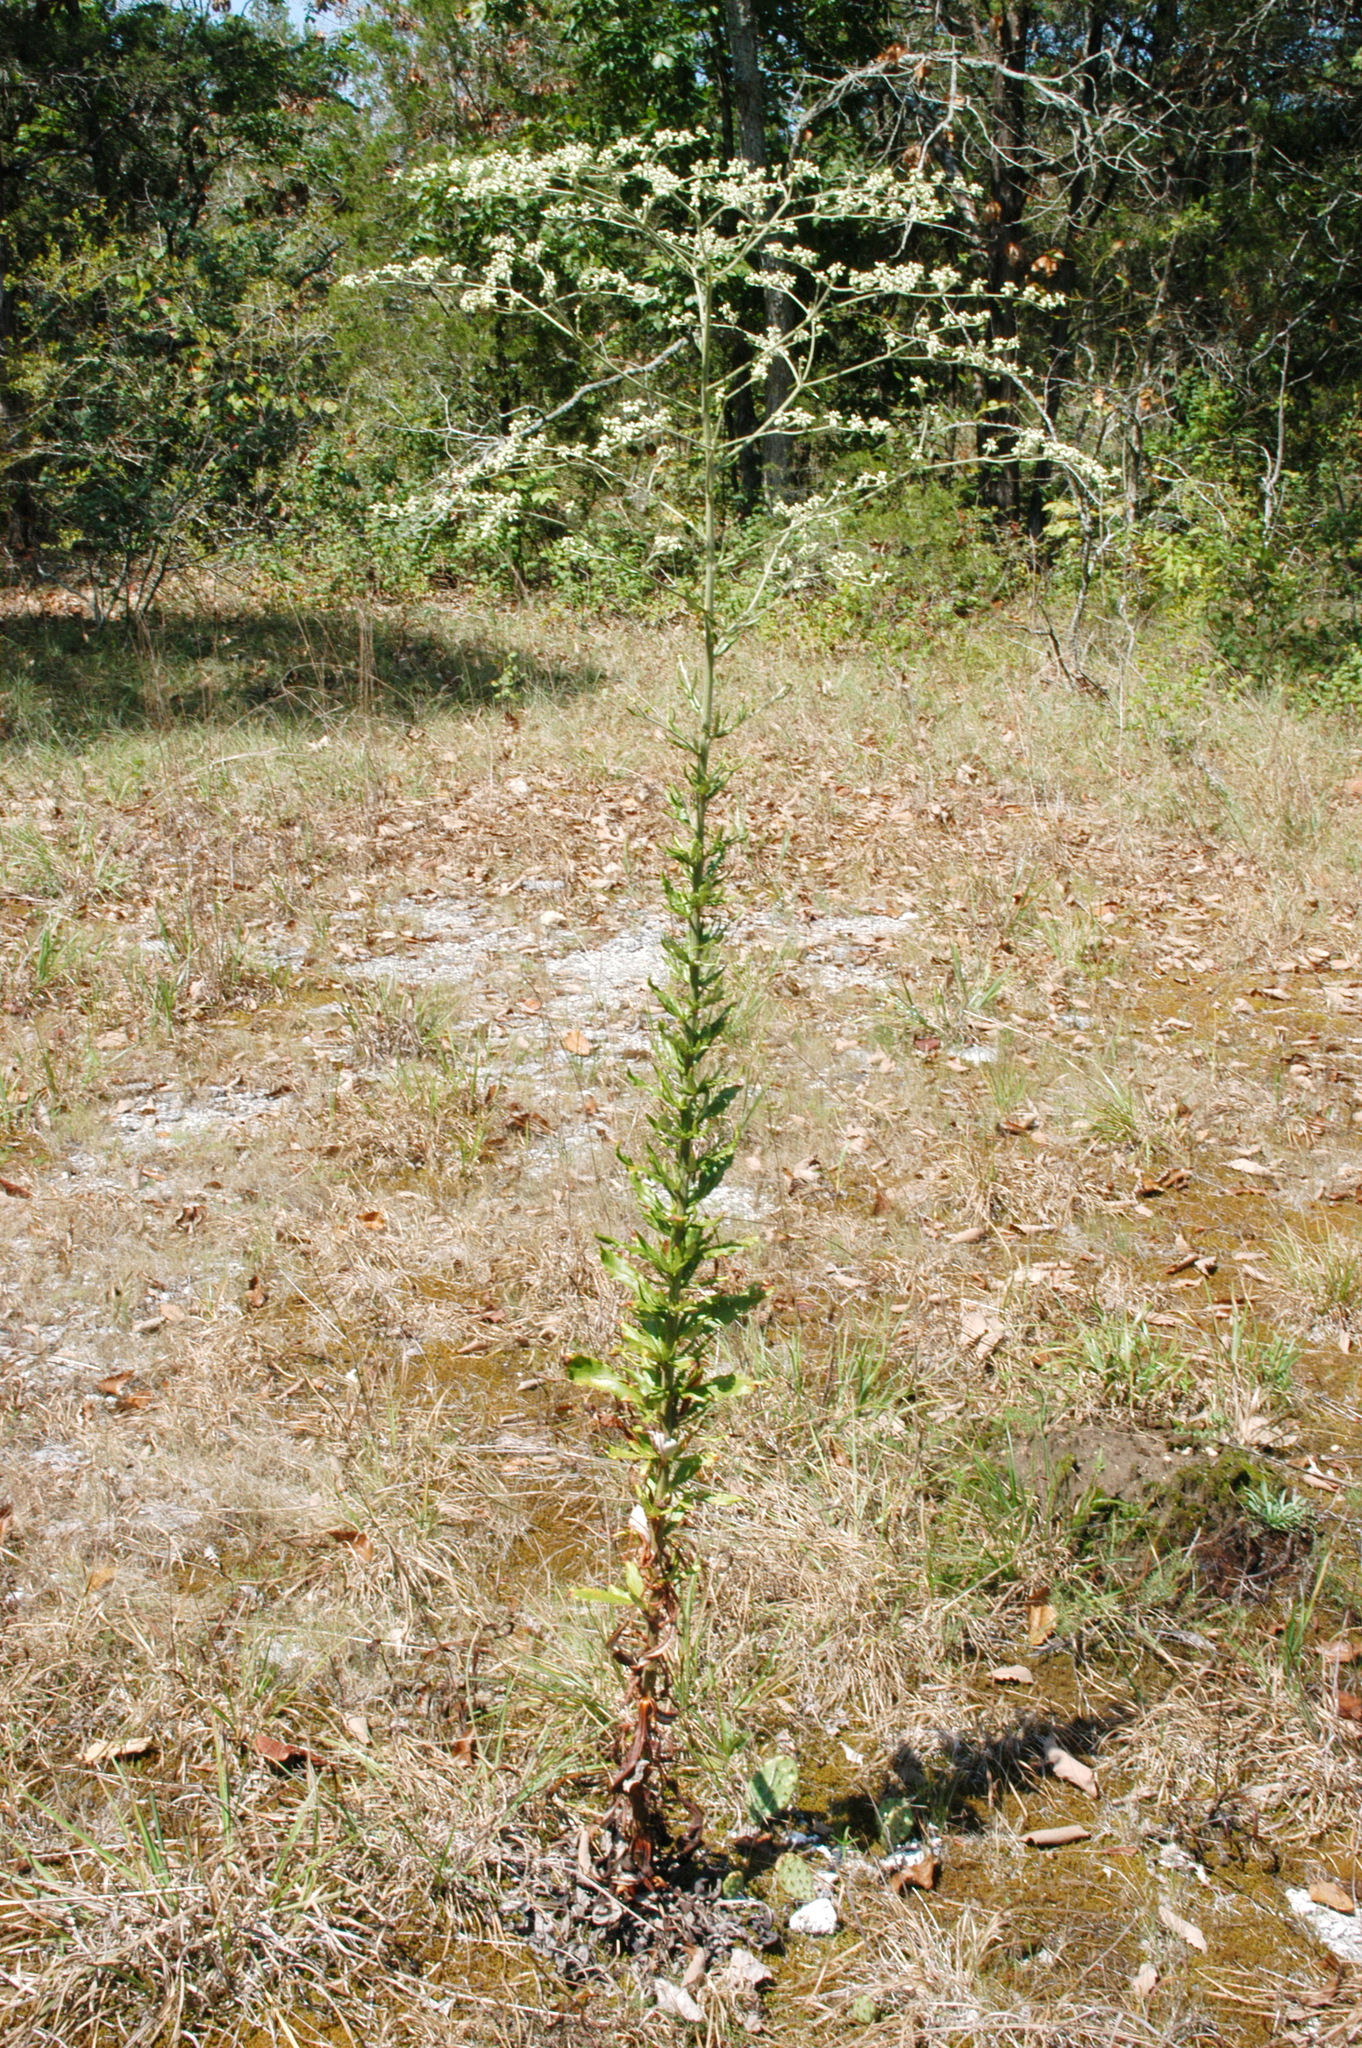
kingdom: Plantae
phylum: Tracheophyta
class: Magnoliopsida
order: Caryophyllales
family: Polygonaceae
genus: Eriogonum
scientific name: Eriogonum longifolium
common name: Longleaf wild buckwheat
